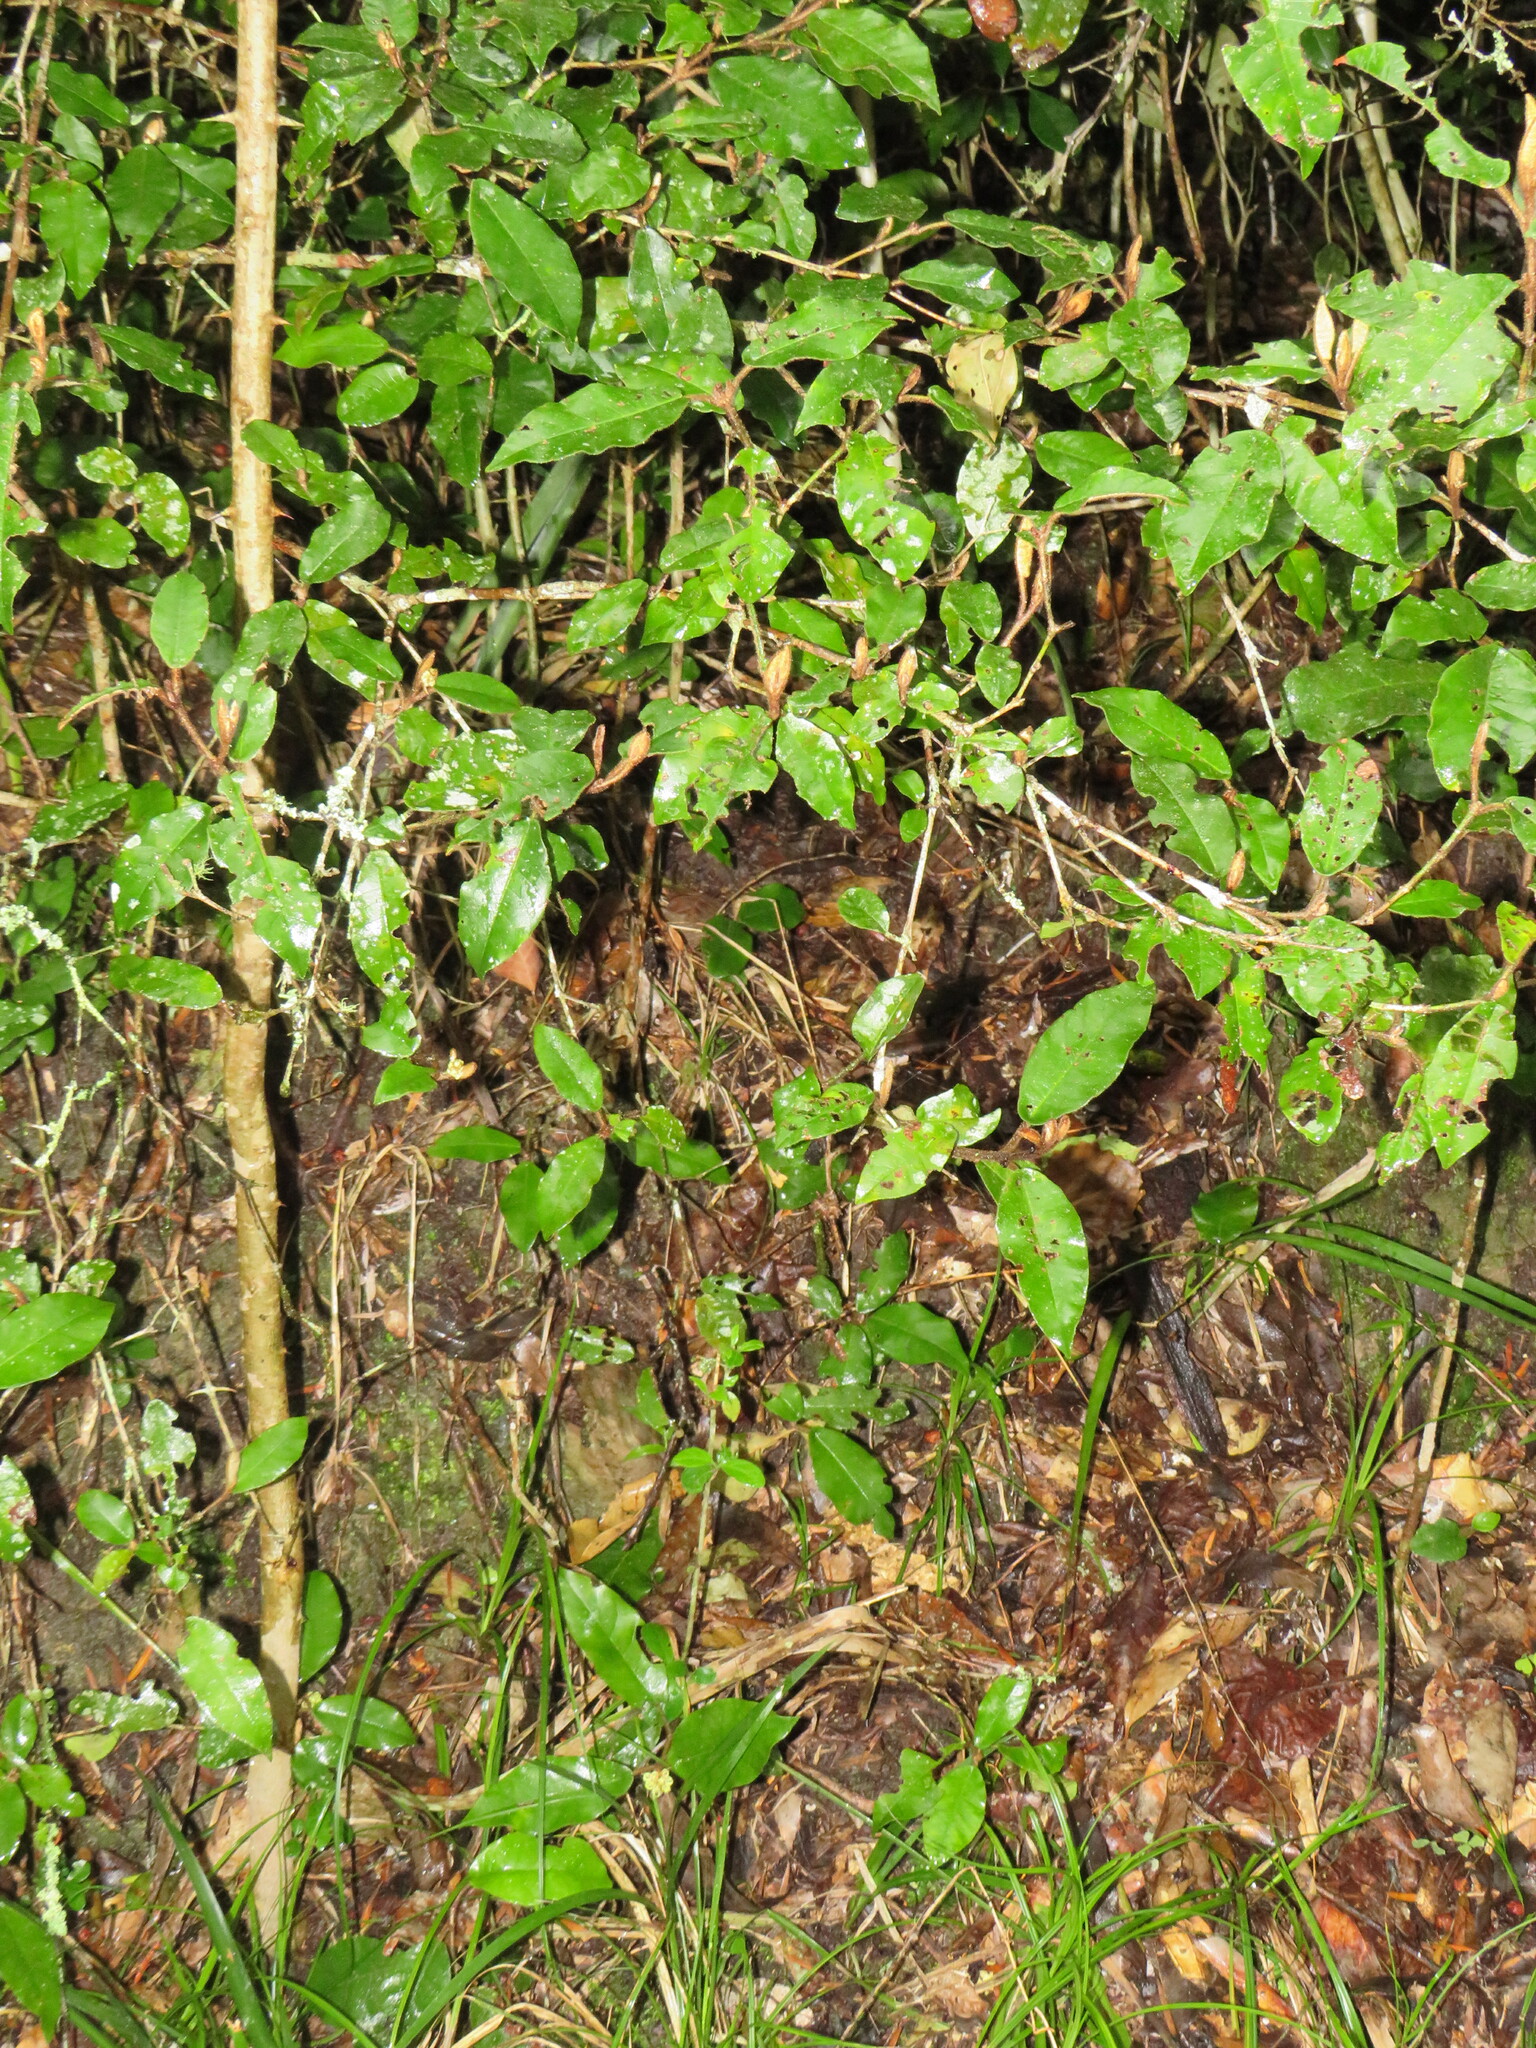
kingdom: Plantae
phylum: Tracheophyta
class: Magnoliopsida
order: Saxifragales
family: Hamamelidaceae
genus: Trichocladus
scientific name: Trichocladus crinitus
